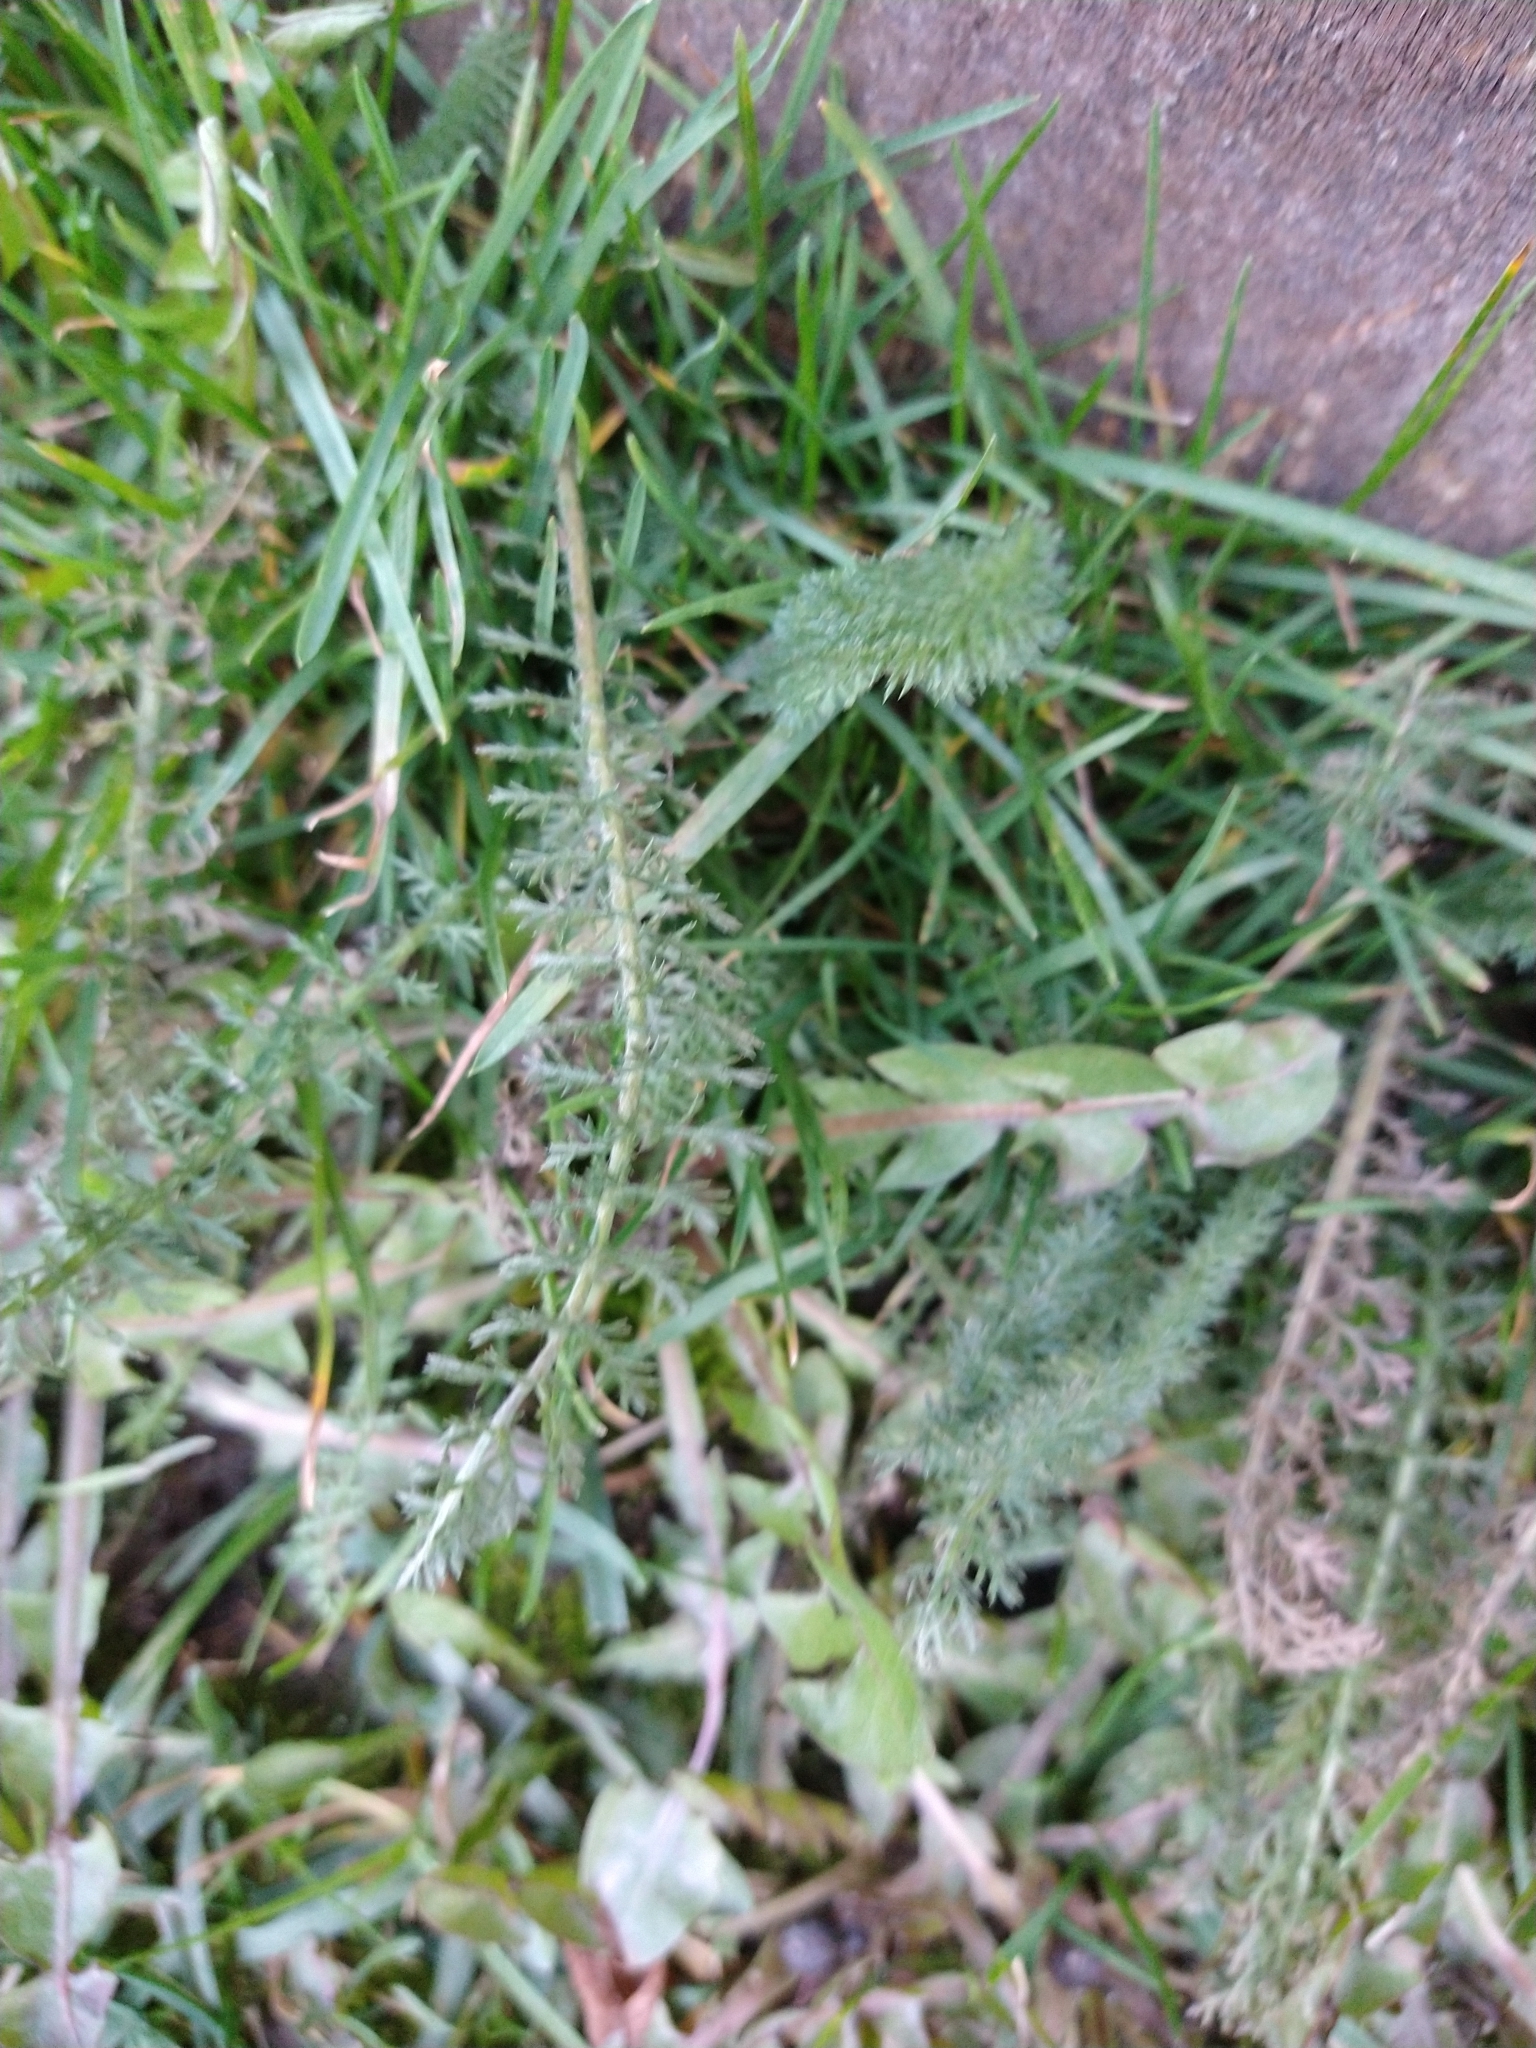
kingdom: Plantae
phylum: Tracheophyta
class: Magnoliopsida
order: Asterales
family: Asteraceae
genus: Achillea
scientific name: Achillea millefolium
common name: Yarrow
